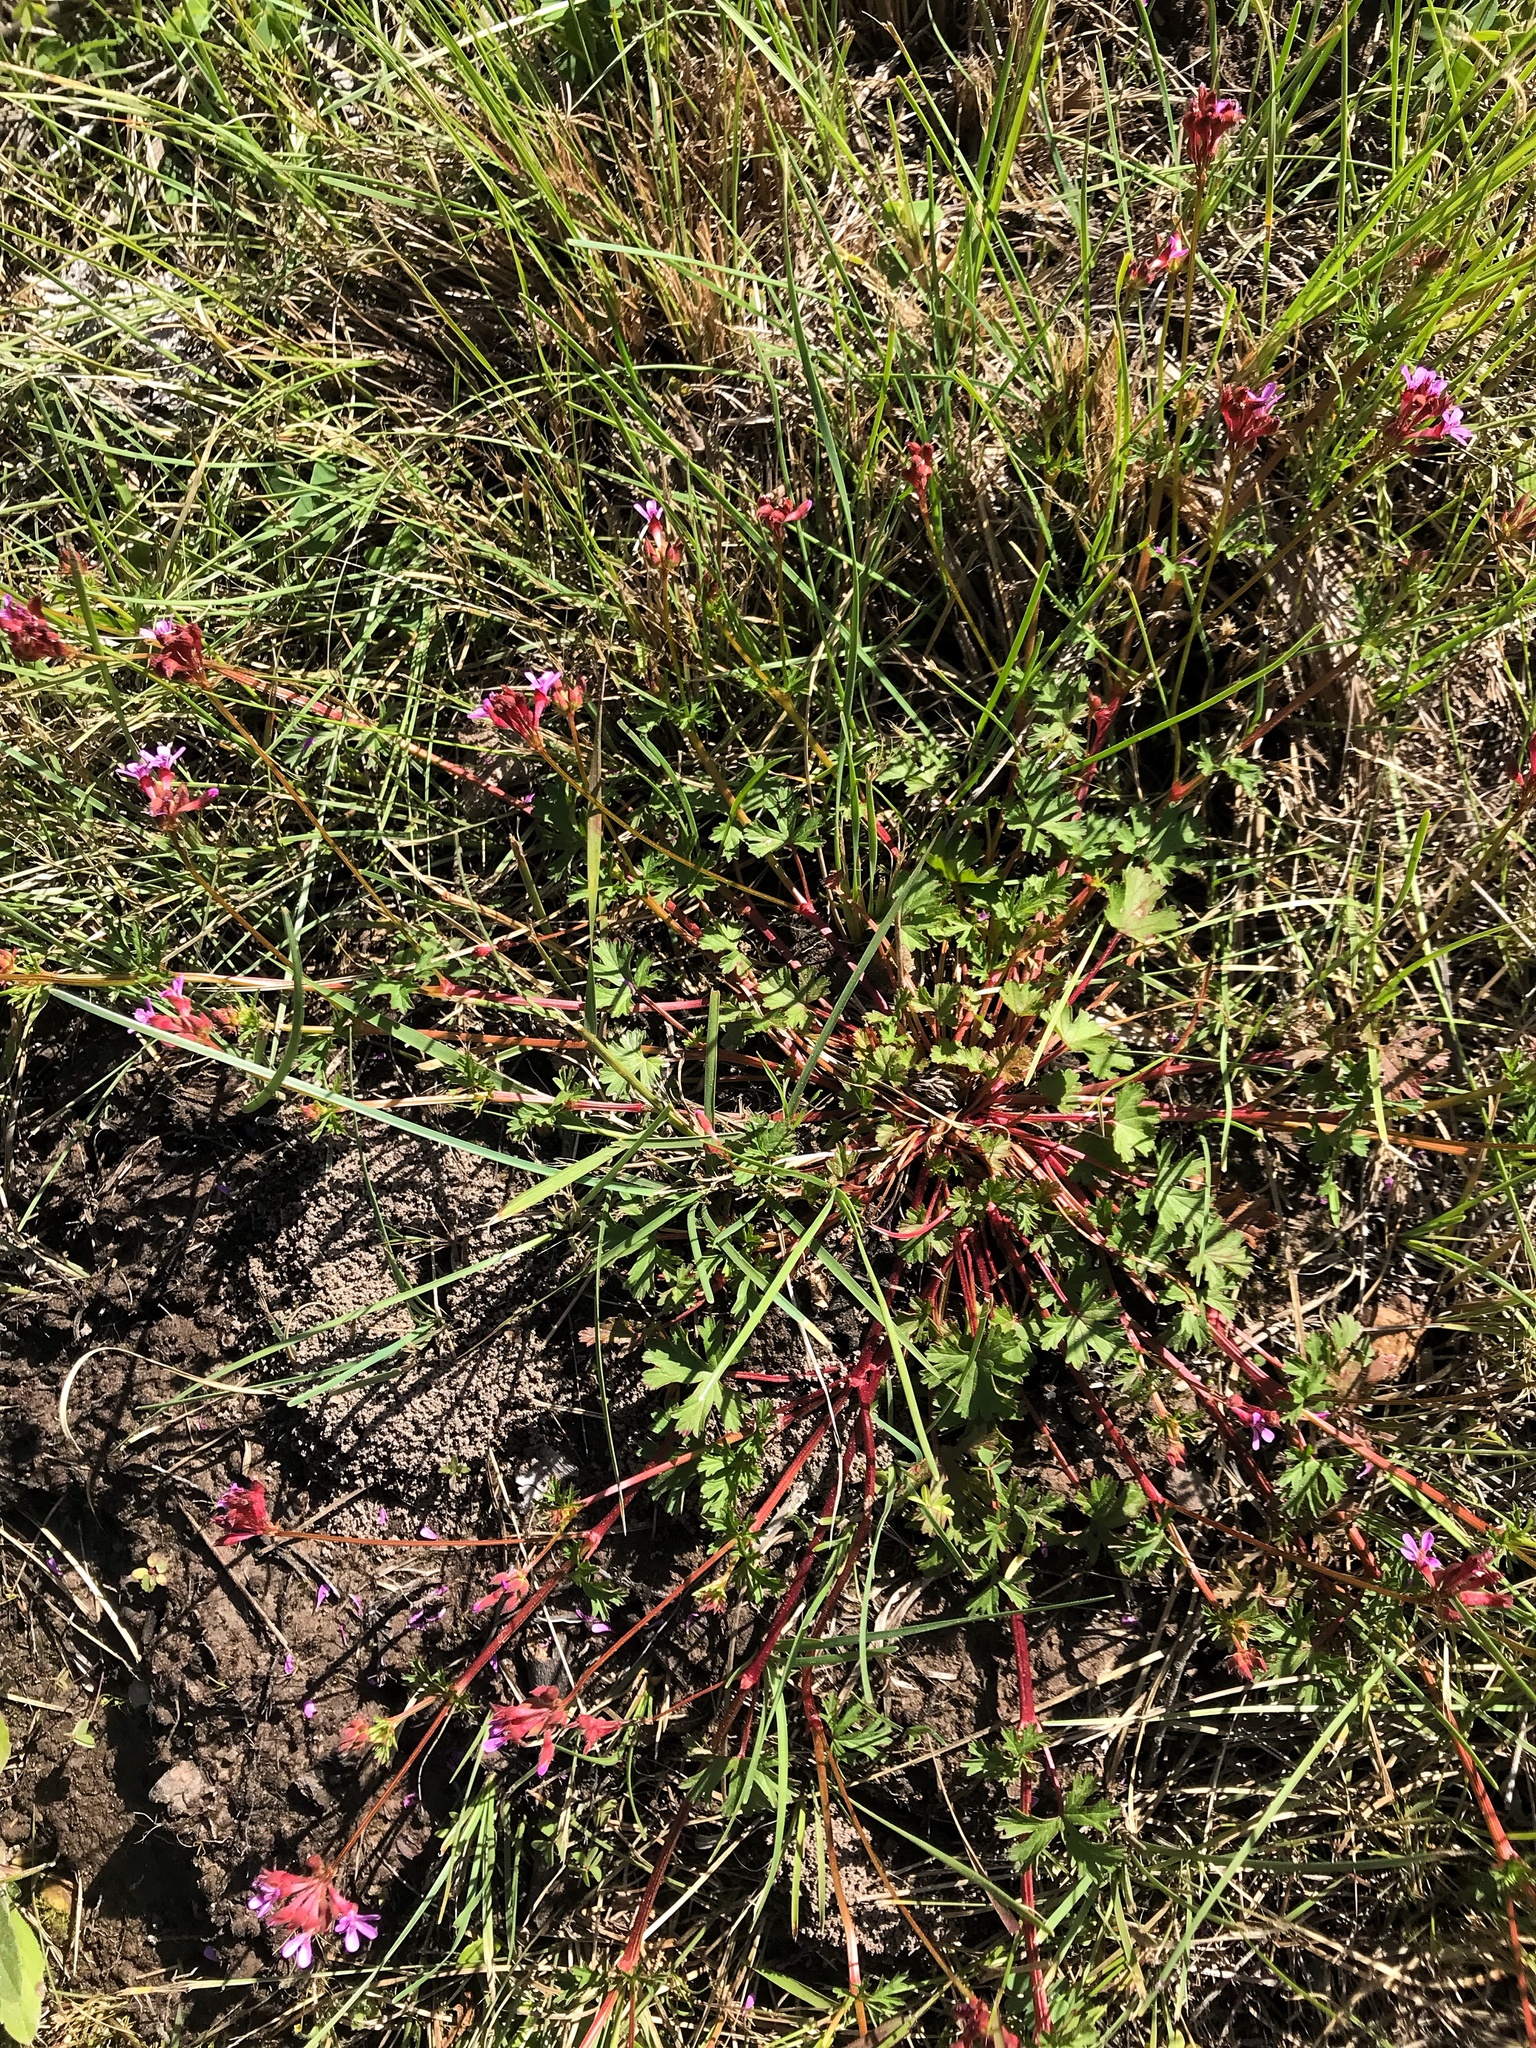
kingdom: Plantae
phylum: Tracheophyta
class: Magnoliopsida
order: Geraniales
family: Geraniaceae
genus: Pelargonium
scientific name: Pelargonium grossularioides
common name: Gooseberry geranium
